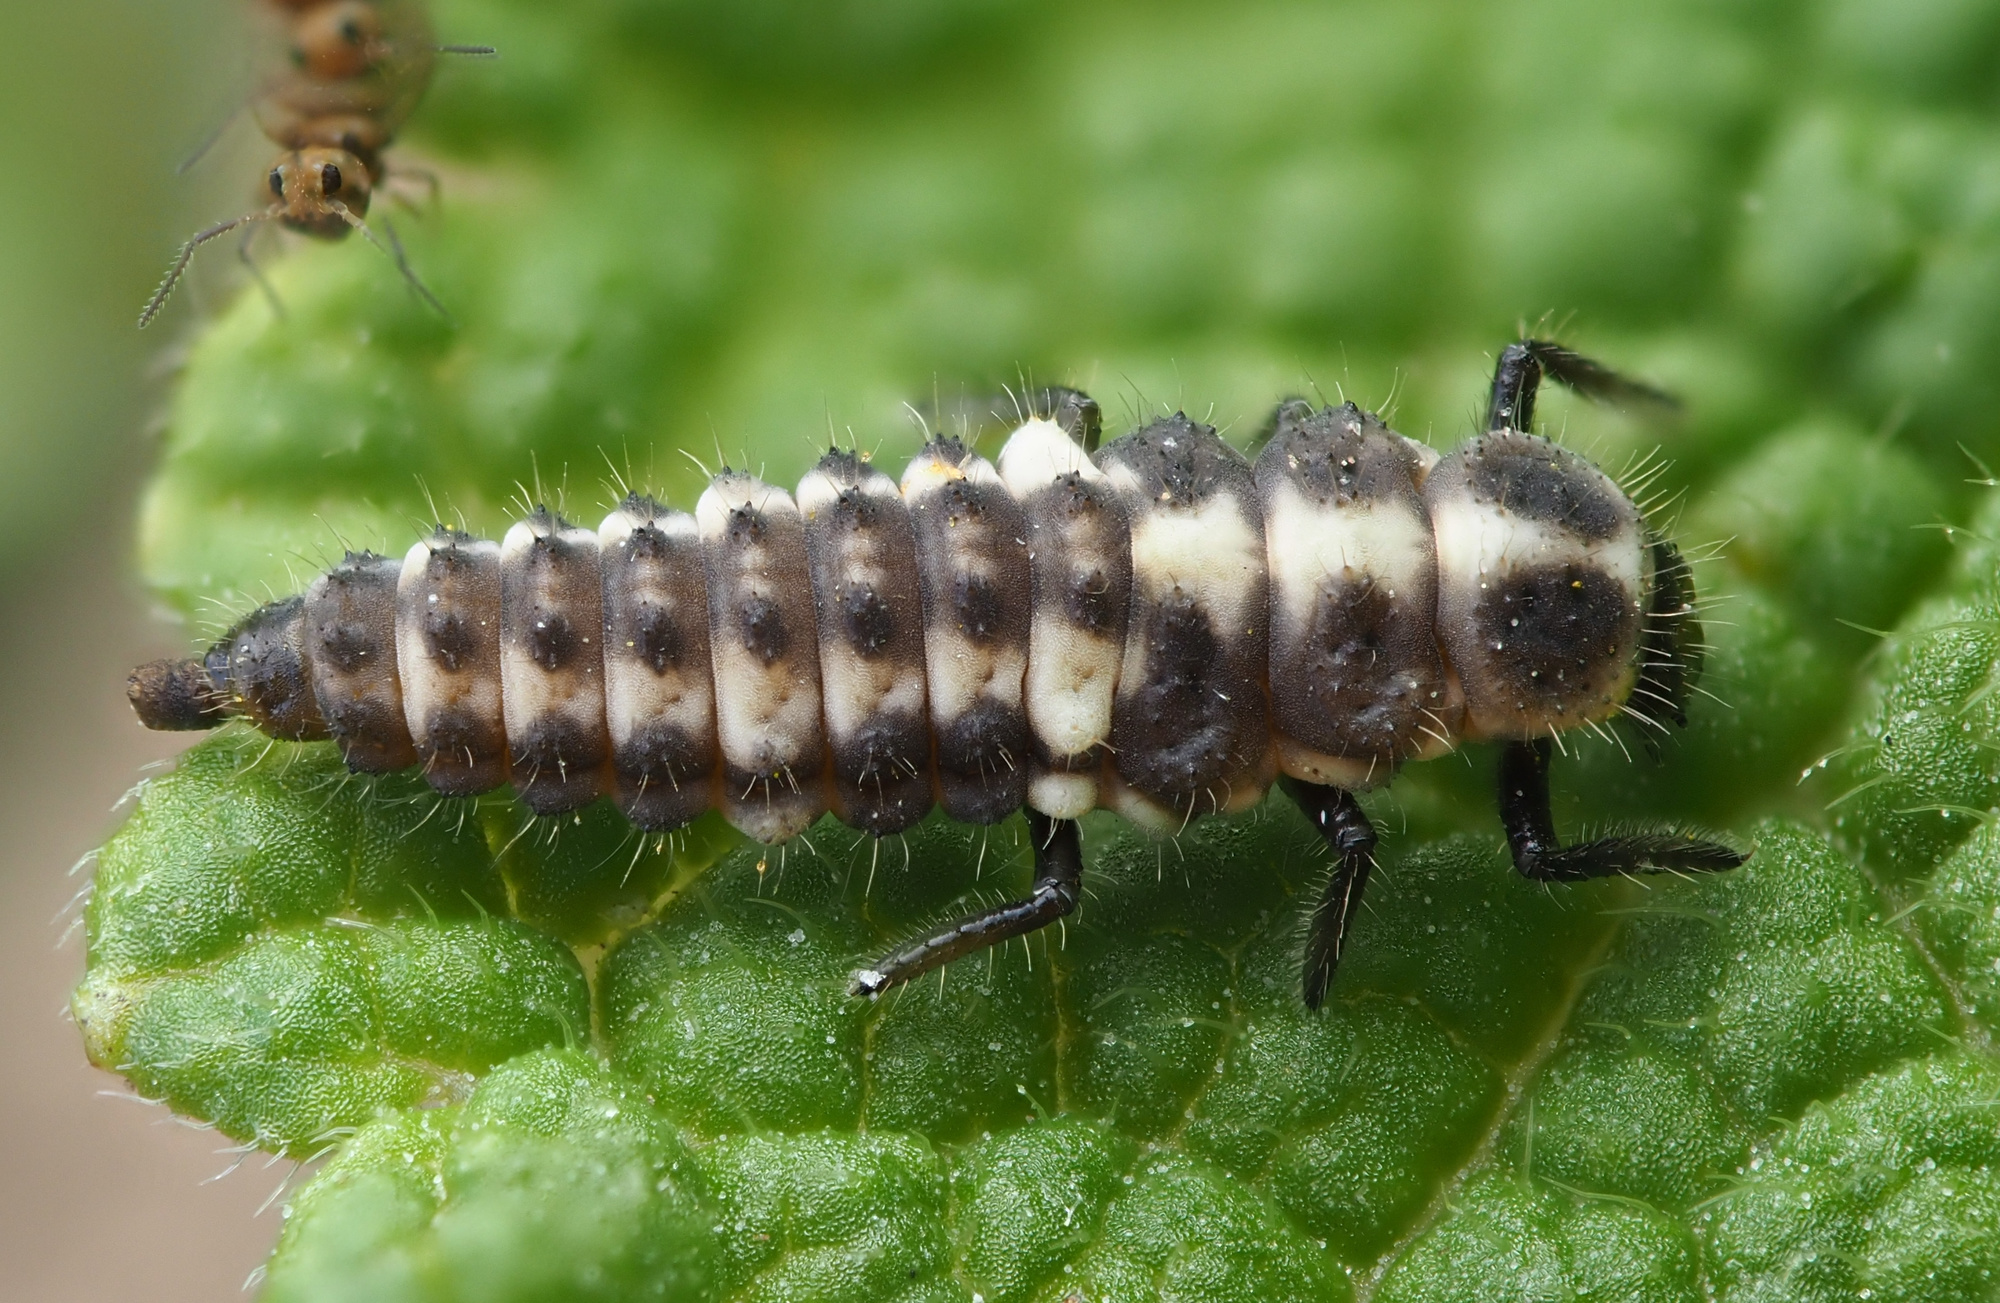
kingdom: Animalia
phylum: Arthropoda
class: Insecta
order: Coleoptera
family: Coccinellidae
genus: Coccinula
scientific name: Coccinula quatuordecimpustulata
